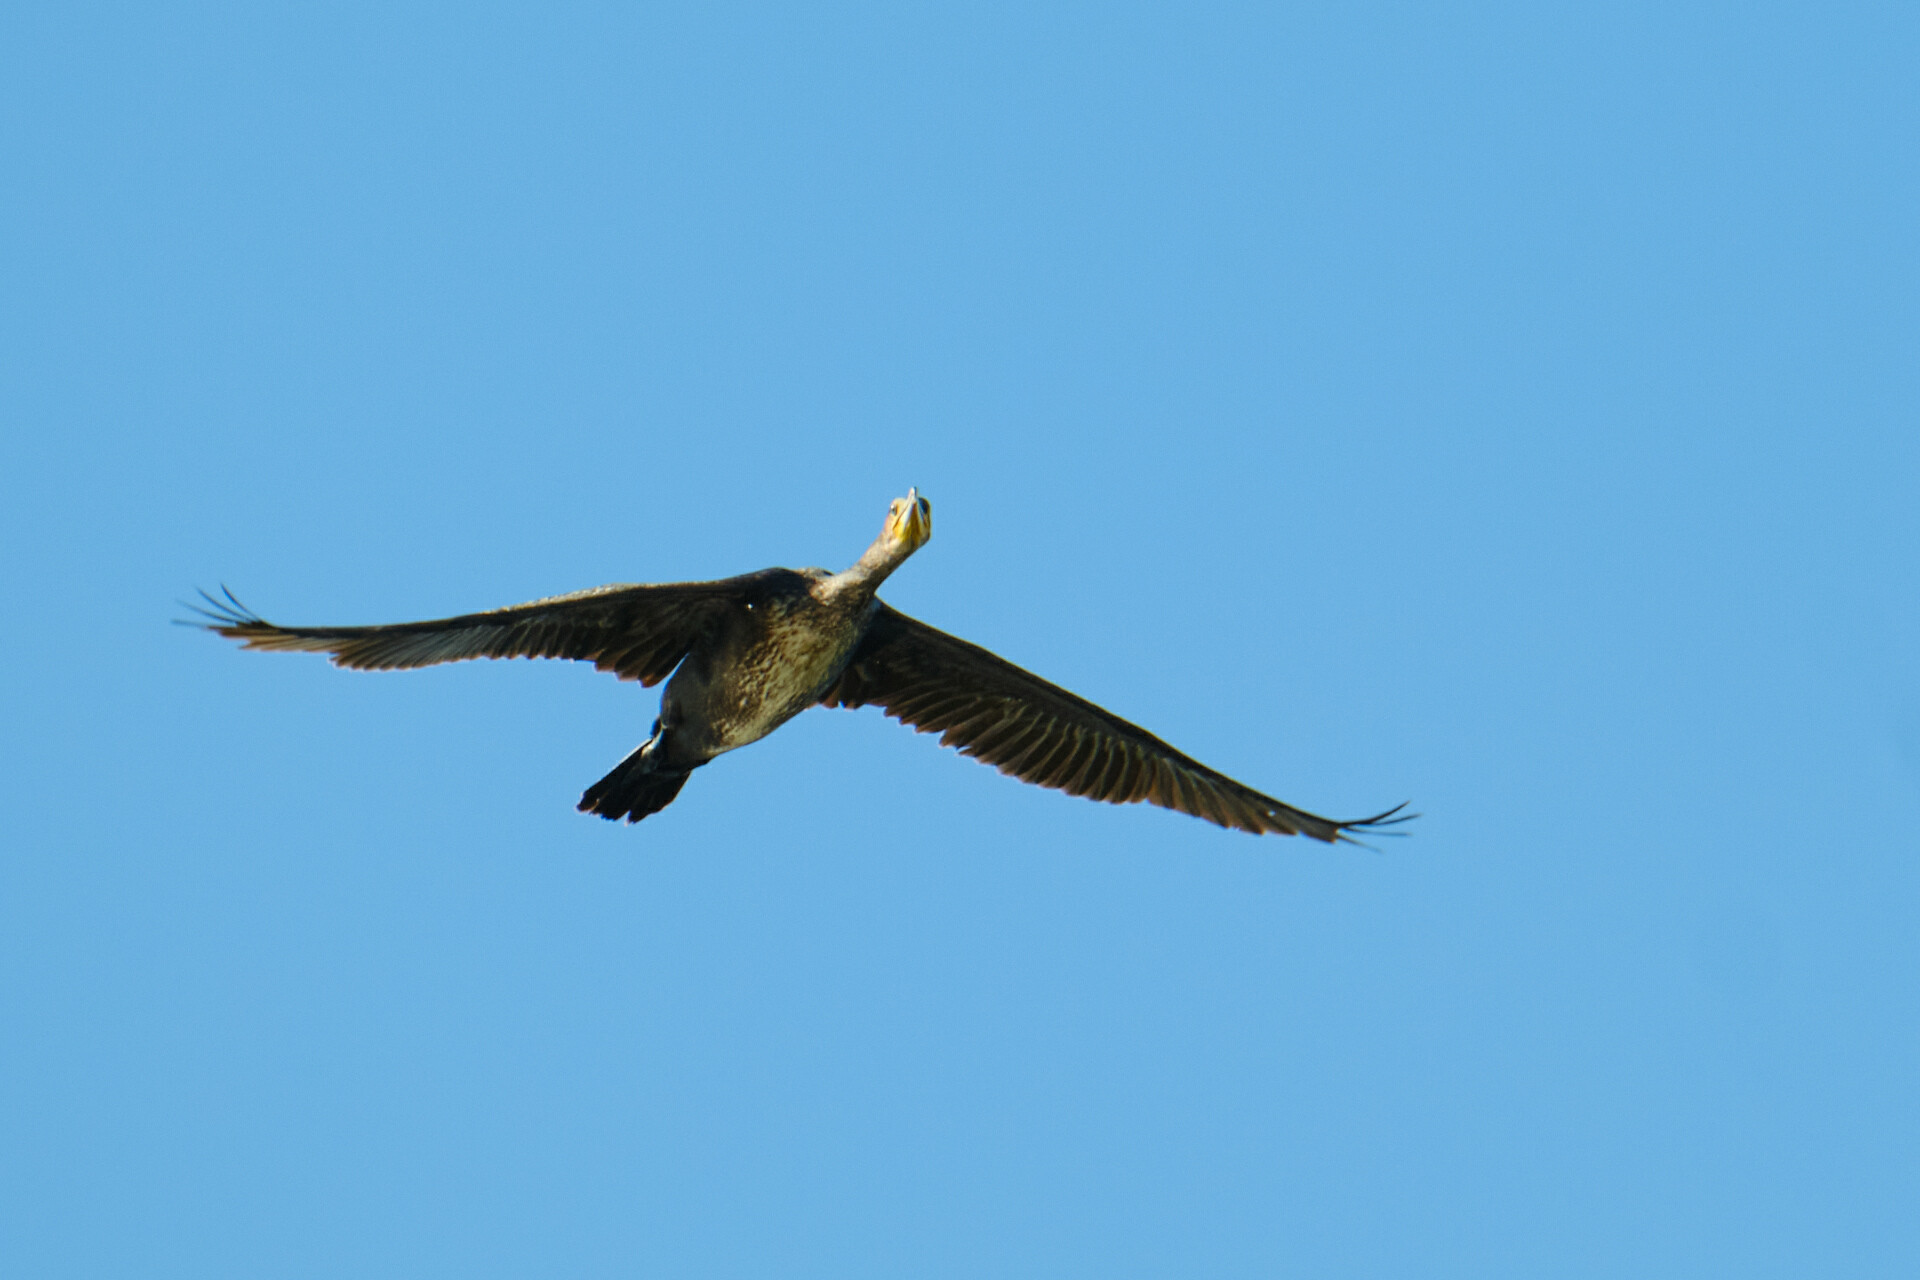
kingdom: Animalia
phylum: Chordata
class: Aves
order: Suliformes
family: Phalacrocoracidae
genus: Phalacrocorax
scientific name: Phalacrocorax carbo
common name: Great cormorant
